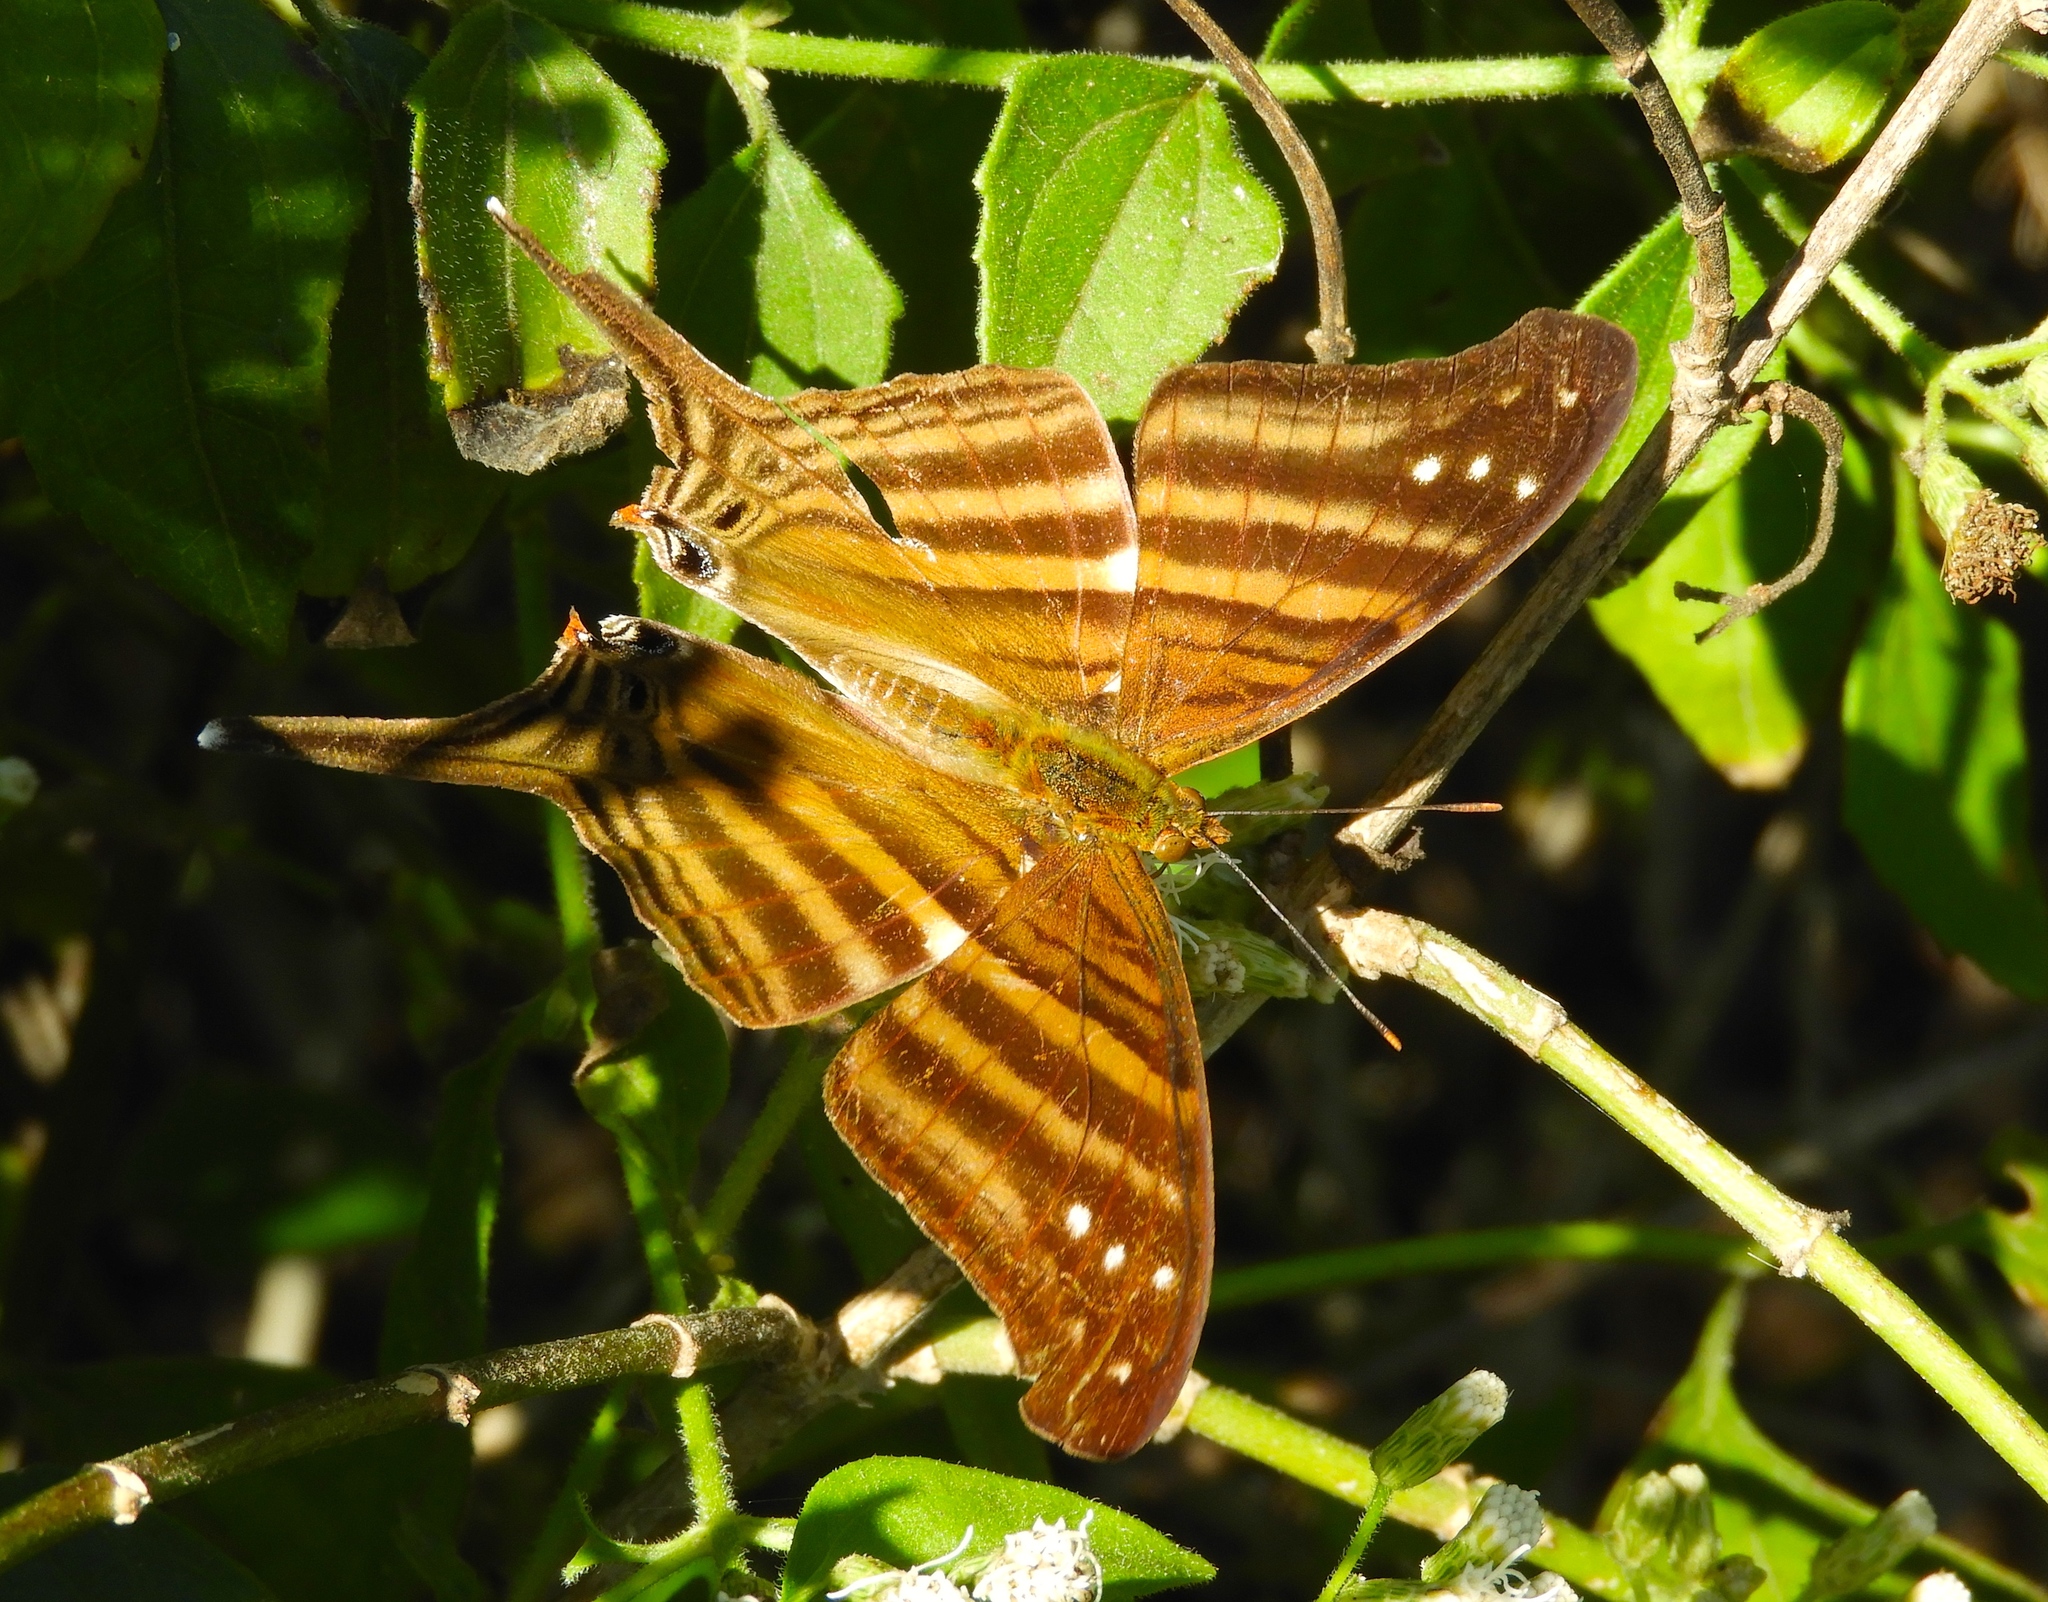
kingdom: Animalia
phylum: Arthropoda
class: Insecta
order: Lepidoptera
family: Nymphalidae
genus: Marpesia
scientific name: Marpesia chiron
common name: Many-banded daggerwing
